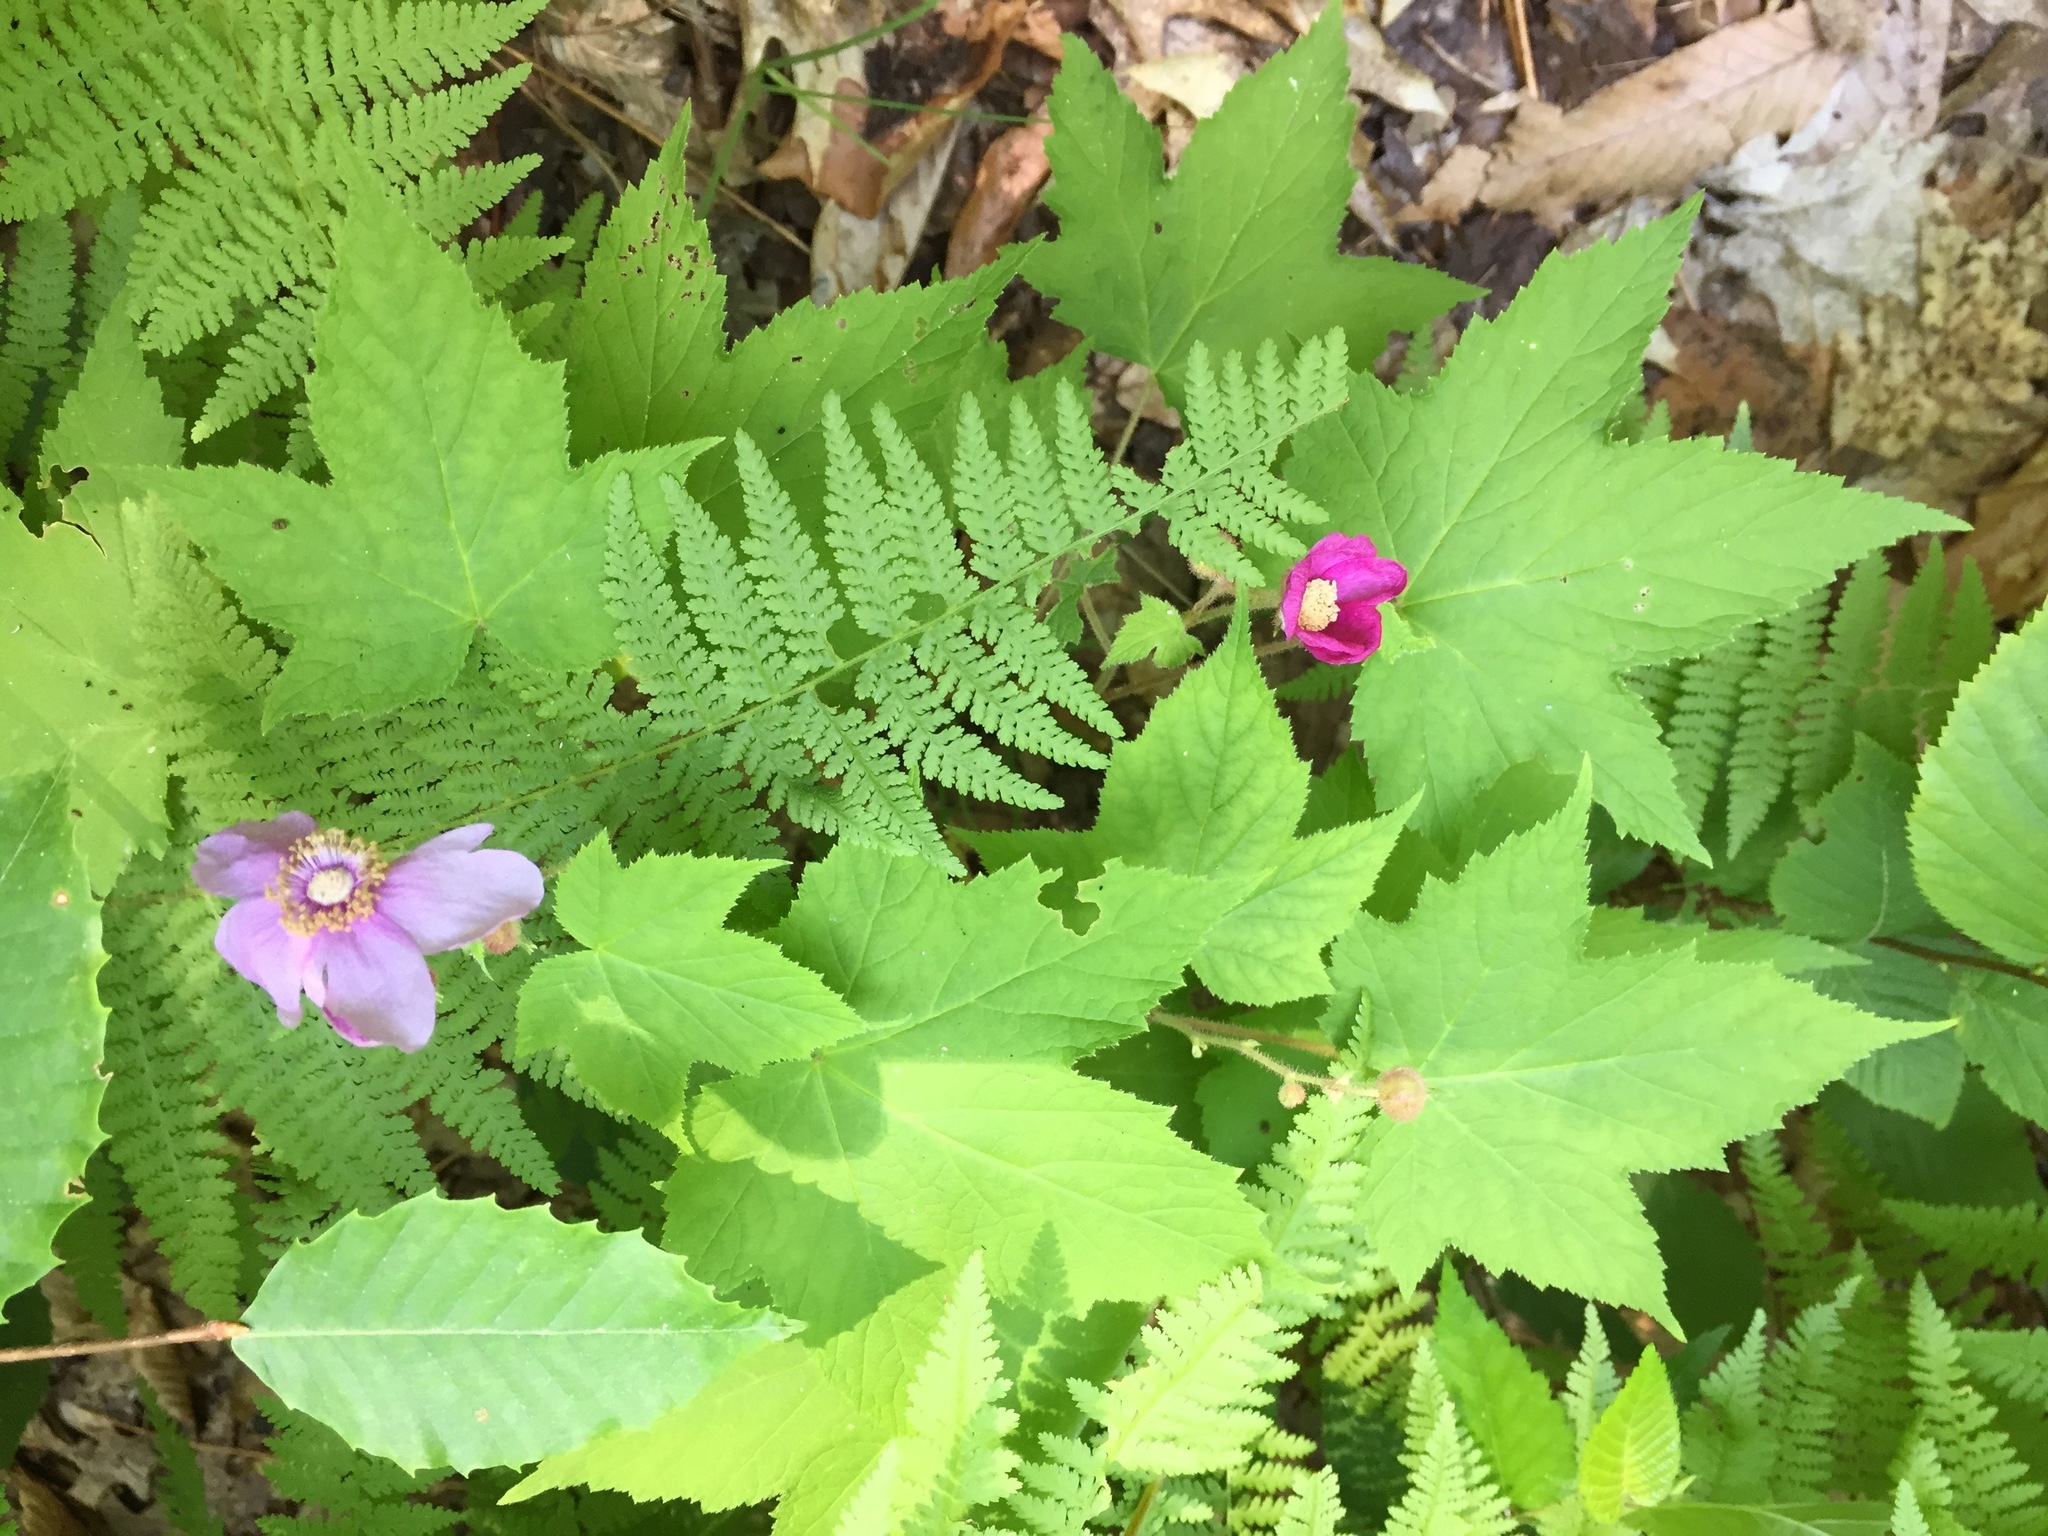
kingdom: Plantae
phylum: Tracheophyta
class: Magnoliopsida
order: Rosales
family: Rosaceae
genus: Rubus
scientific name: Rubus odoratus
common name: Purple-flowered raspberry
